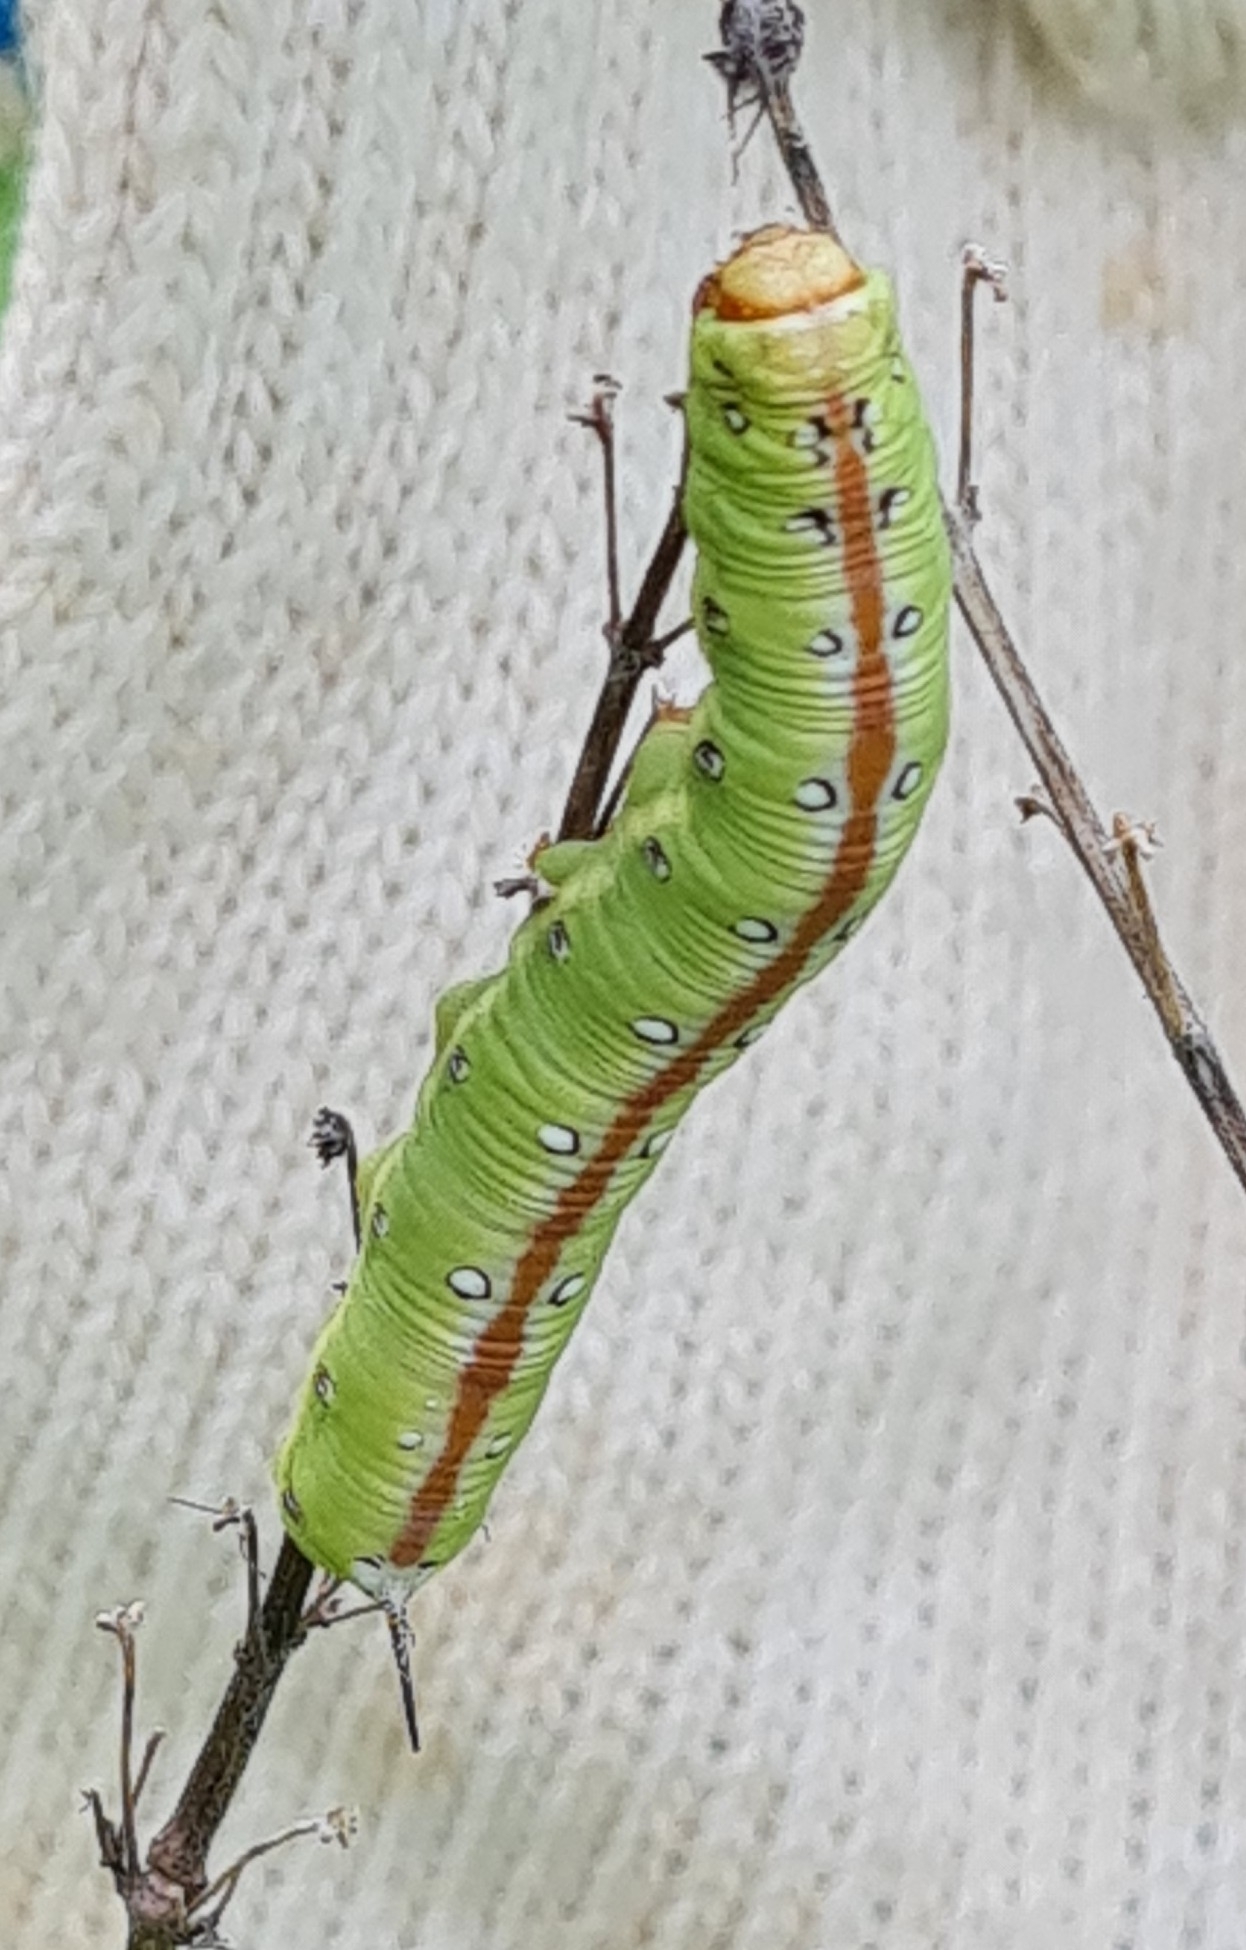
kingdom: Animalia
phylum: Arthropoda
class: Insecta
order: Lepidoptera
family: Sphingidae
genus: Neogene
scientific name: Neogene dynaeus
